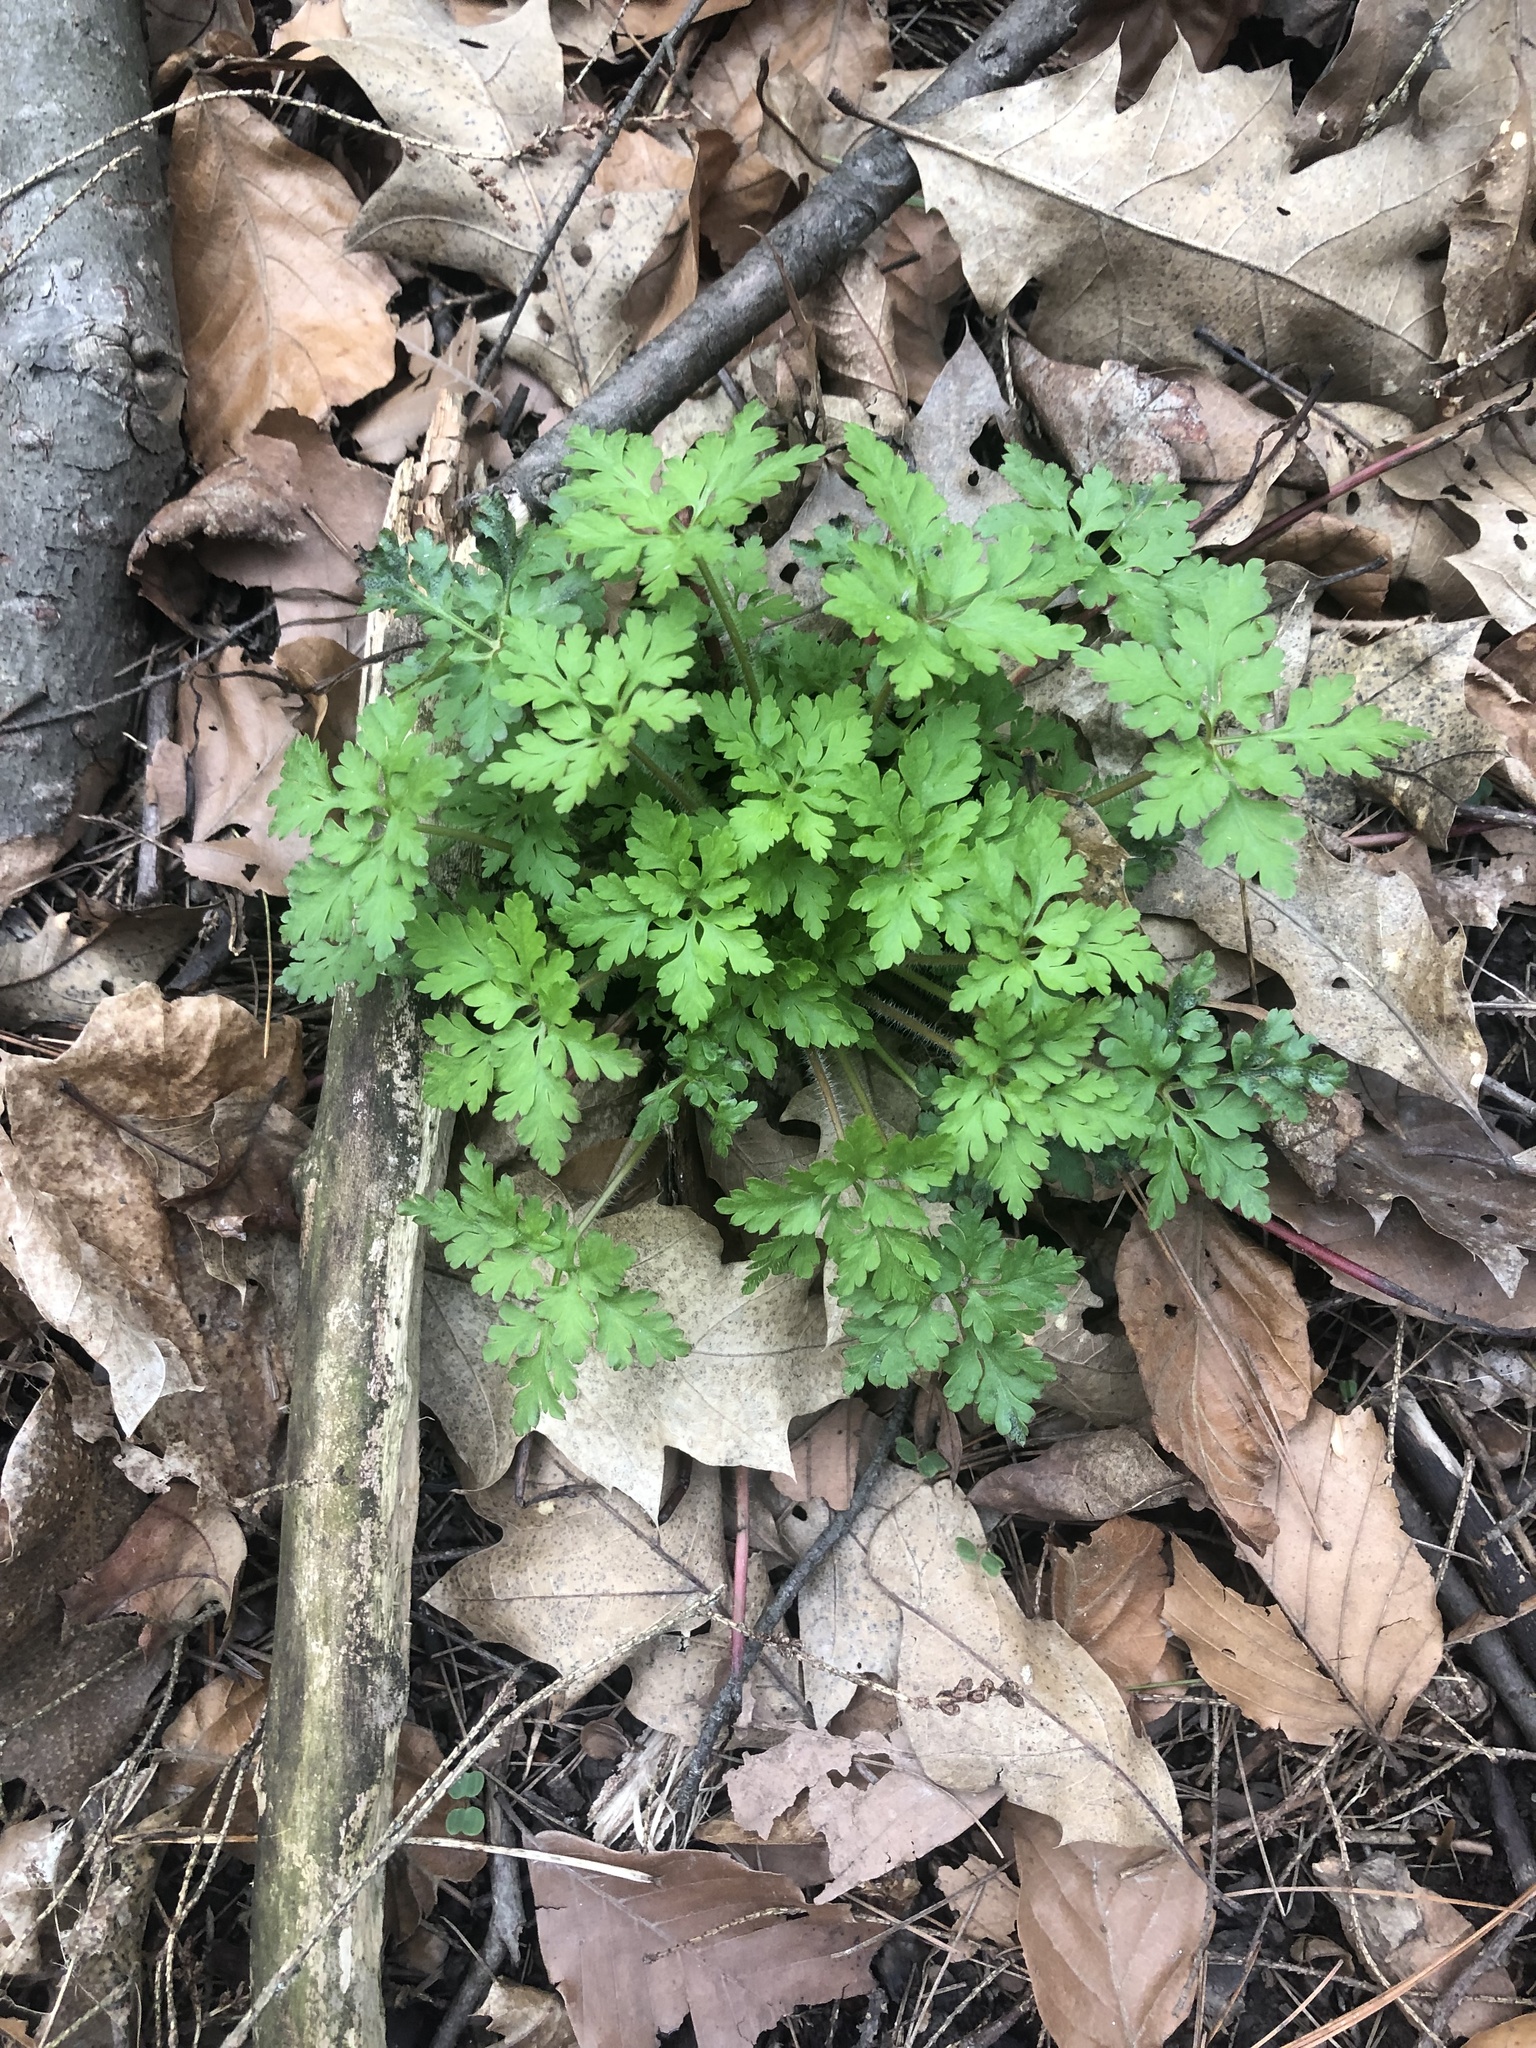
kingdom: Plantae
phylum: Tracheophyta
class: Magnoliopsida
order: Geraniales
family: Geraniaceae
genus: Geranium
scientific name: Geranium robertianum
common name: Herb-robert
